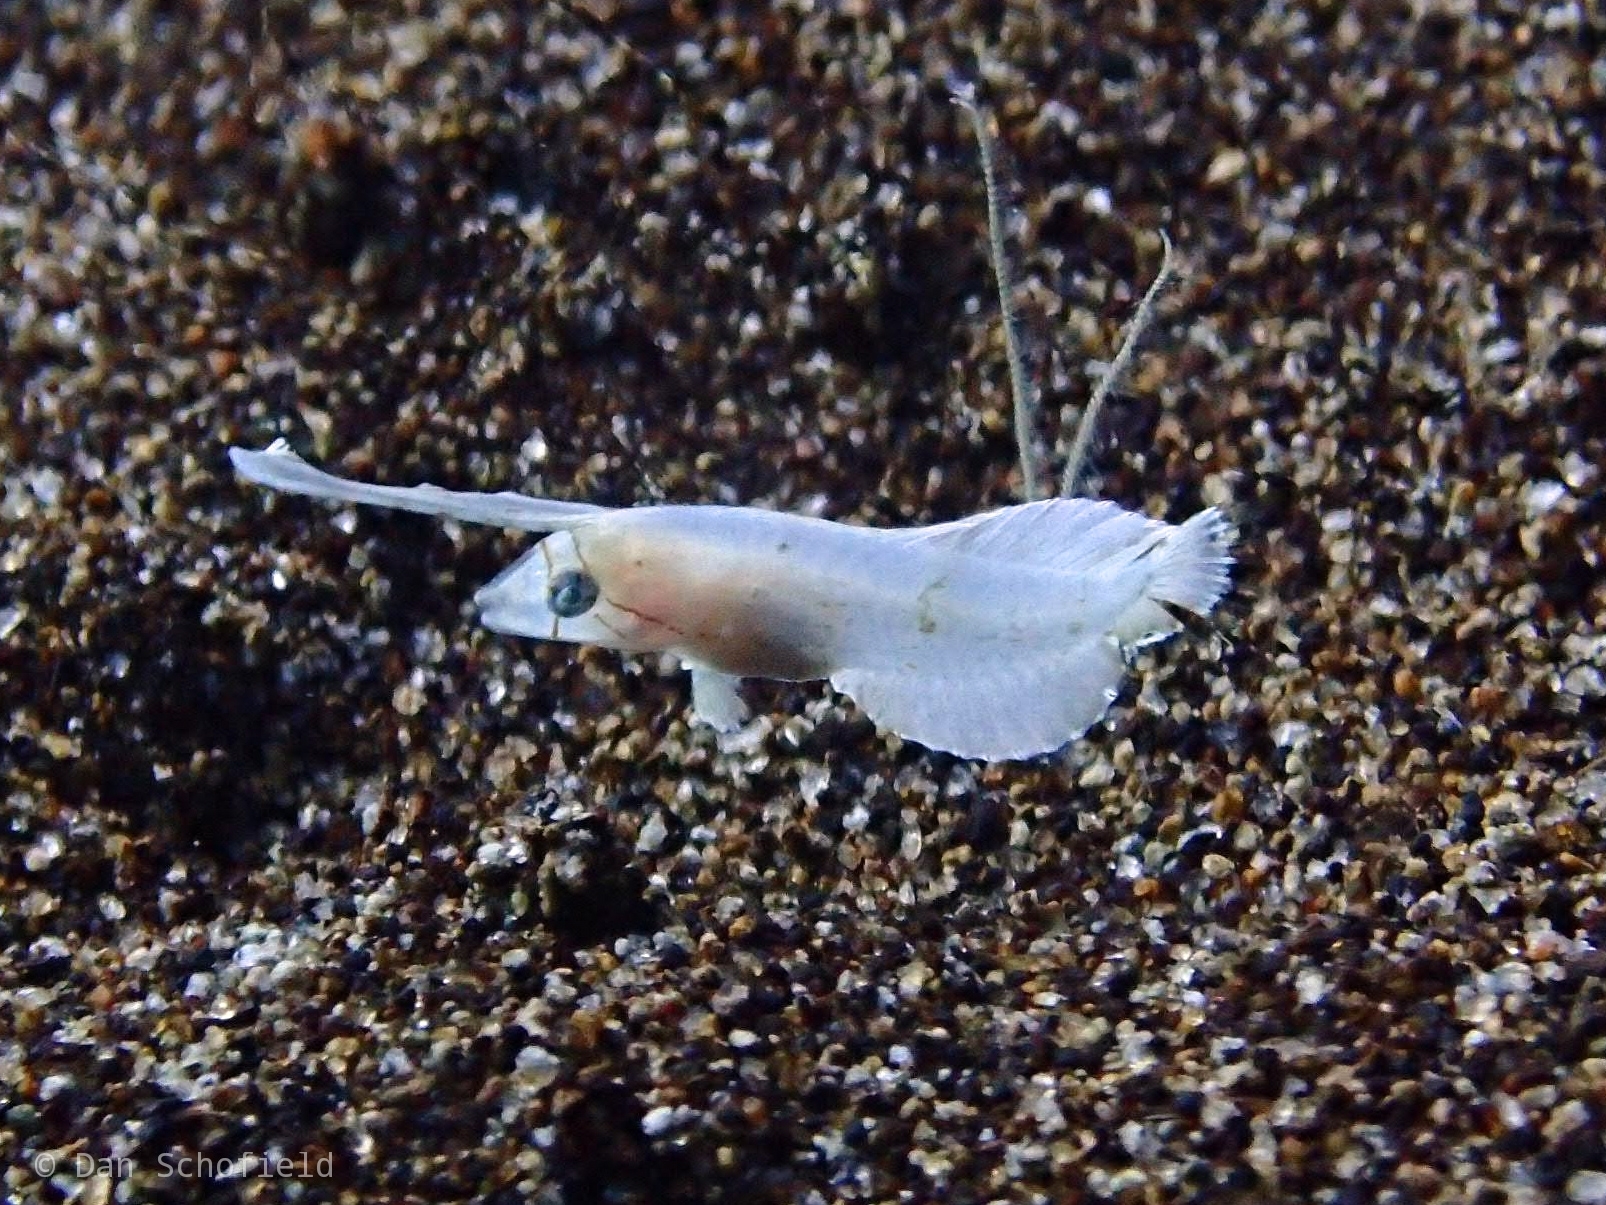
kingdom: Animalia
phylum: Chordata
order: Perciformes
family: Labridae
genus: Iniistius
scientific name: Iniistius pavo
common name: Peacock wrasse
